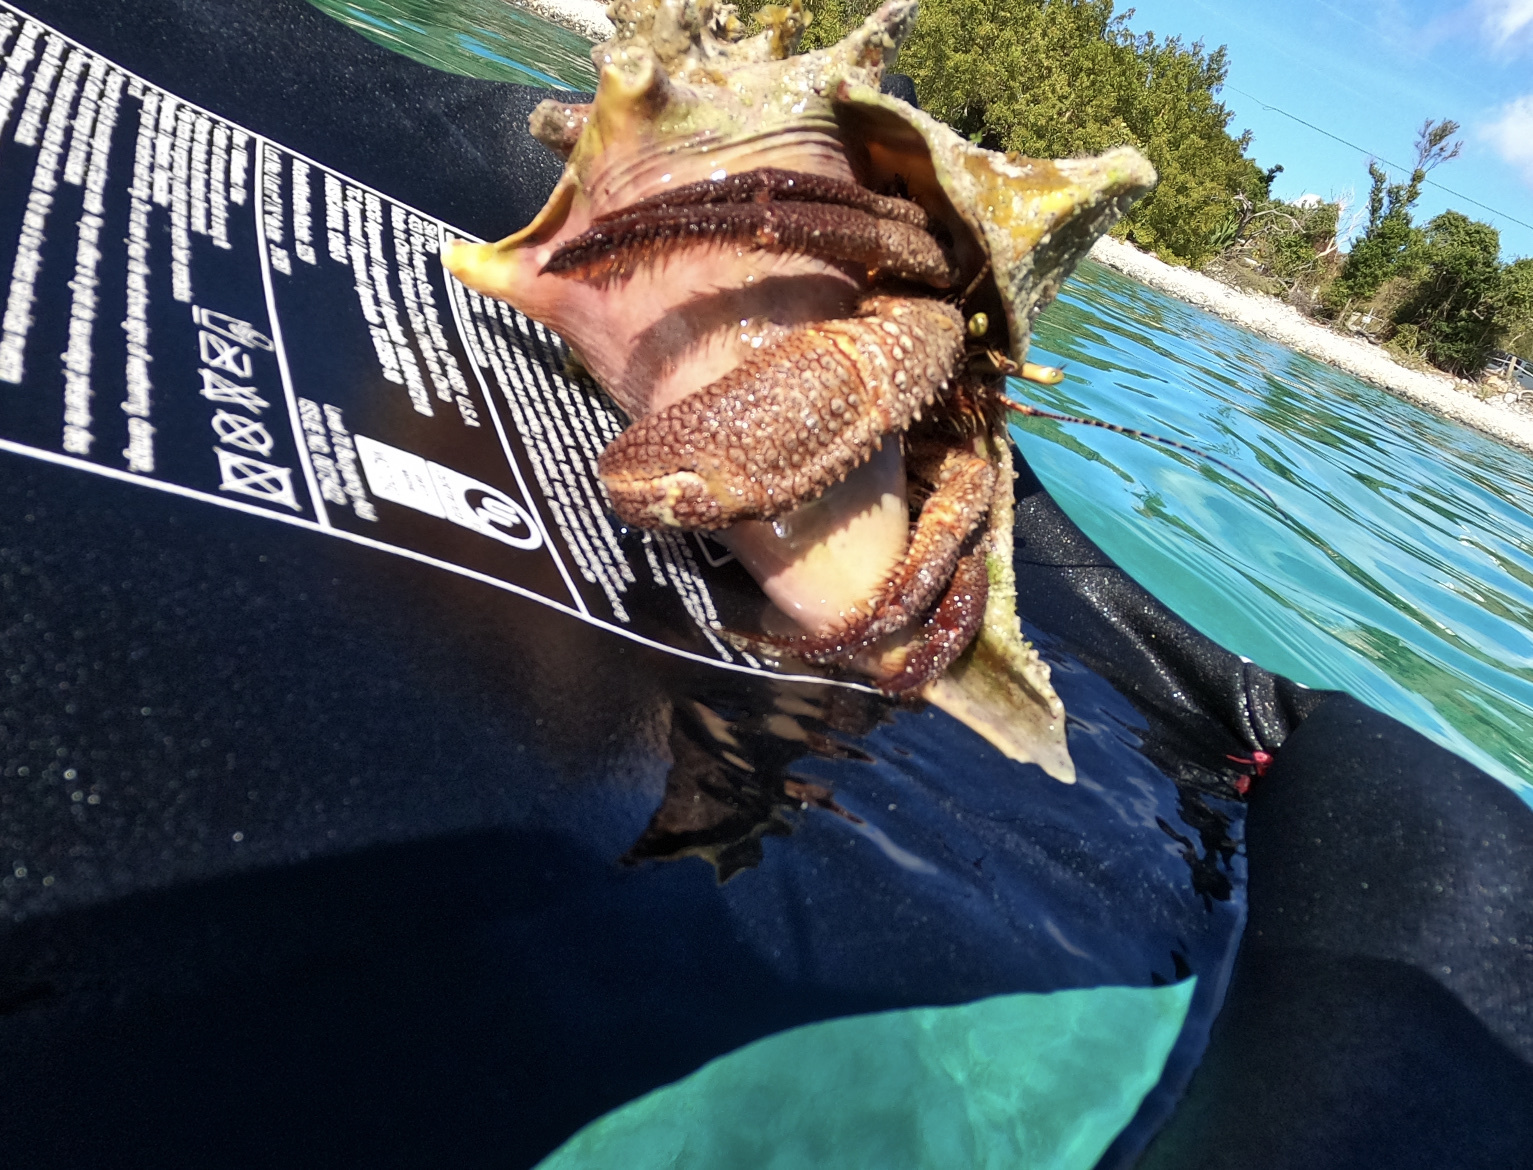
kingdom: Animalia
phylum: Arthropoda
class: Malacostraca
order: Decapoda
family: Diogenidae
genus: Petrochirus
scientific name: Petrochirus diogenes
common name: Giant hermit crab
